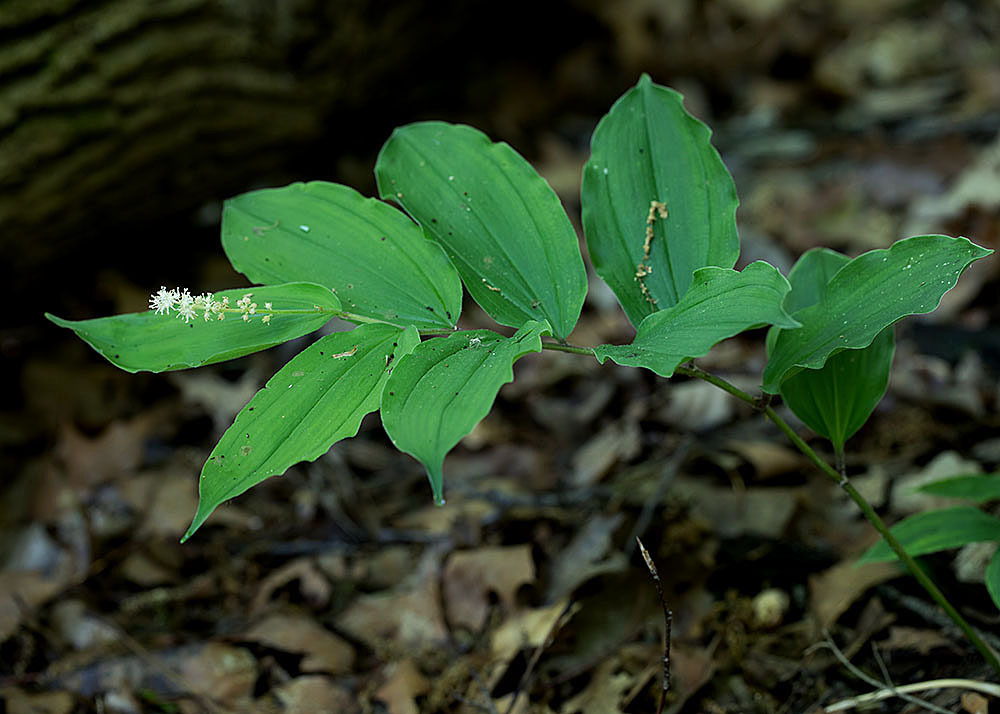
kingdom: Plantae
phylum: Tracheophyta
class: Liliopsida
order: Asparagales
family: Asparagaceae
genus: Maianthemum
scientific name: Maianthemum racemosum
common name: False spikenard
